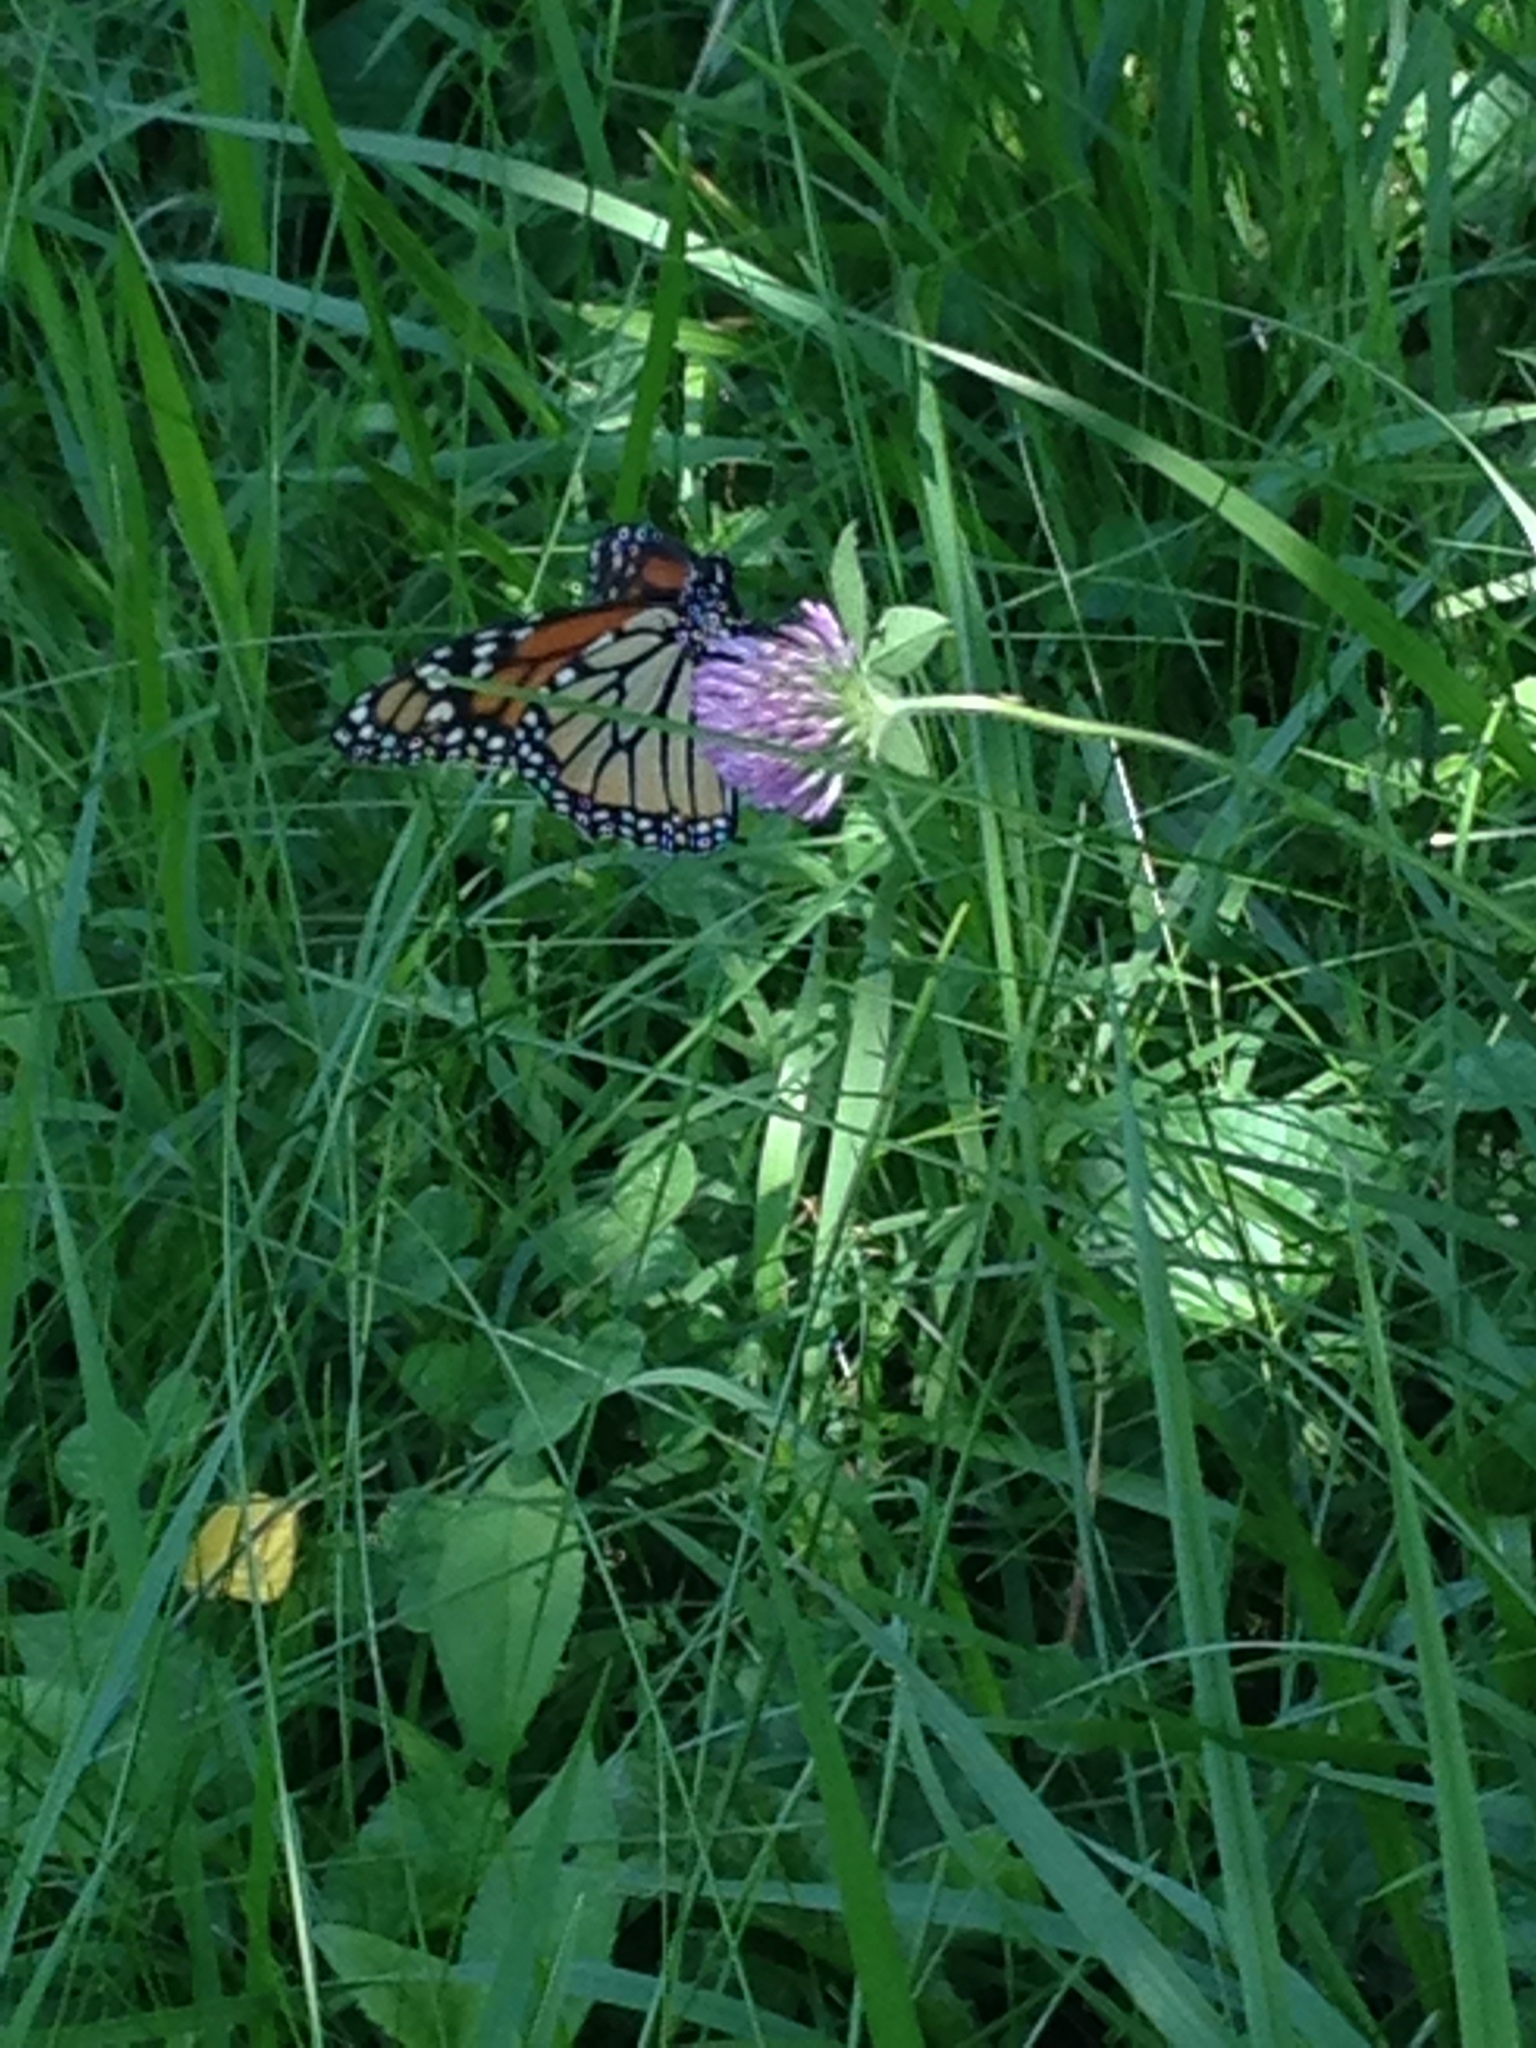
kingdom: Animalia
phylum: Arthropoda
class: Insecta
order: Lepidoptera
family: Nymphalidae
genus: Danaus
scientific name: Danaus plexippus
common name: Monarch
